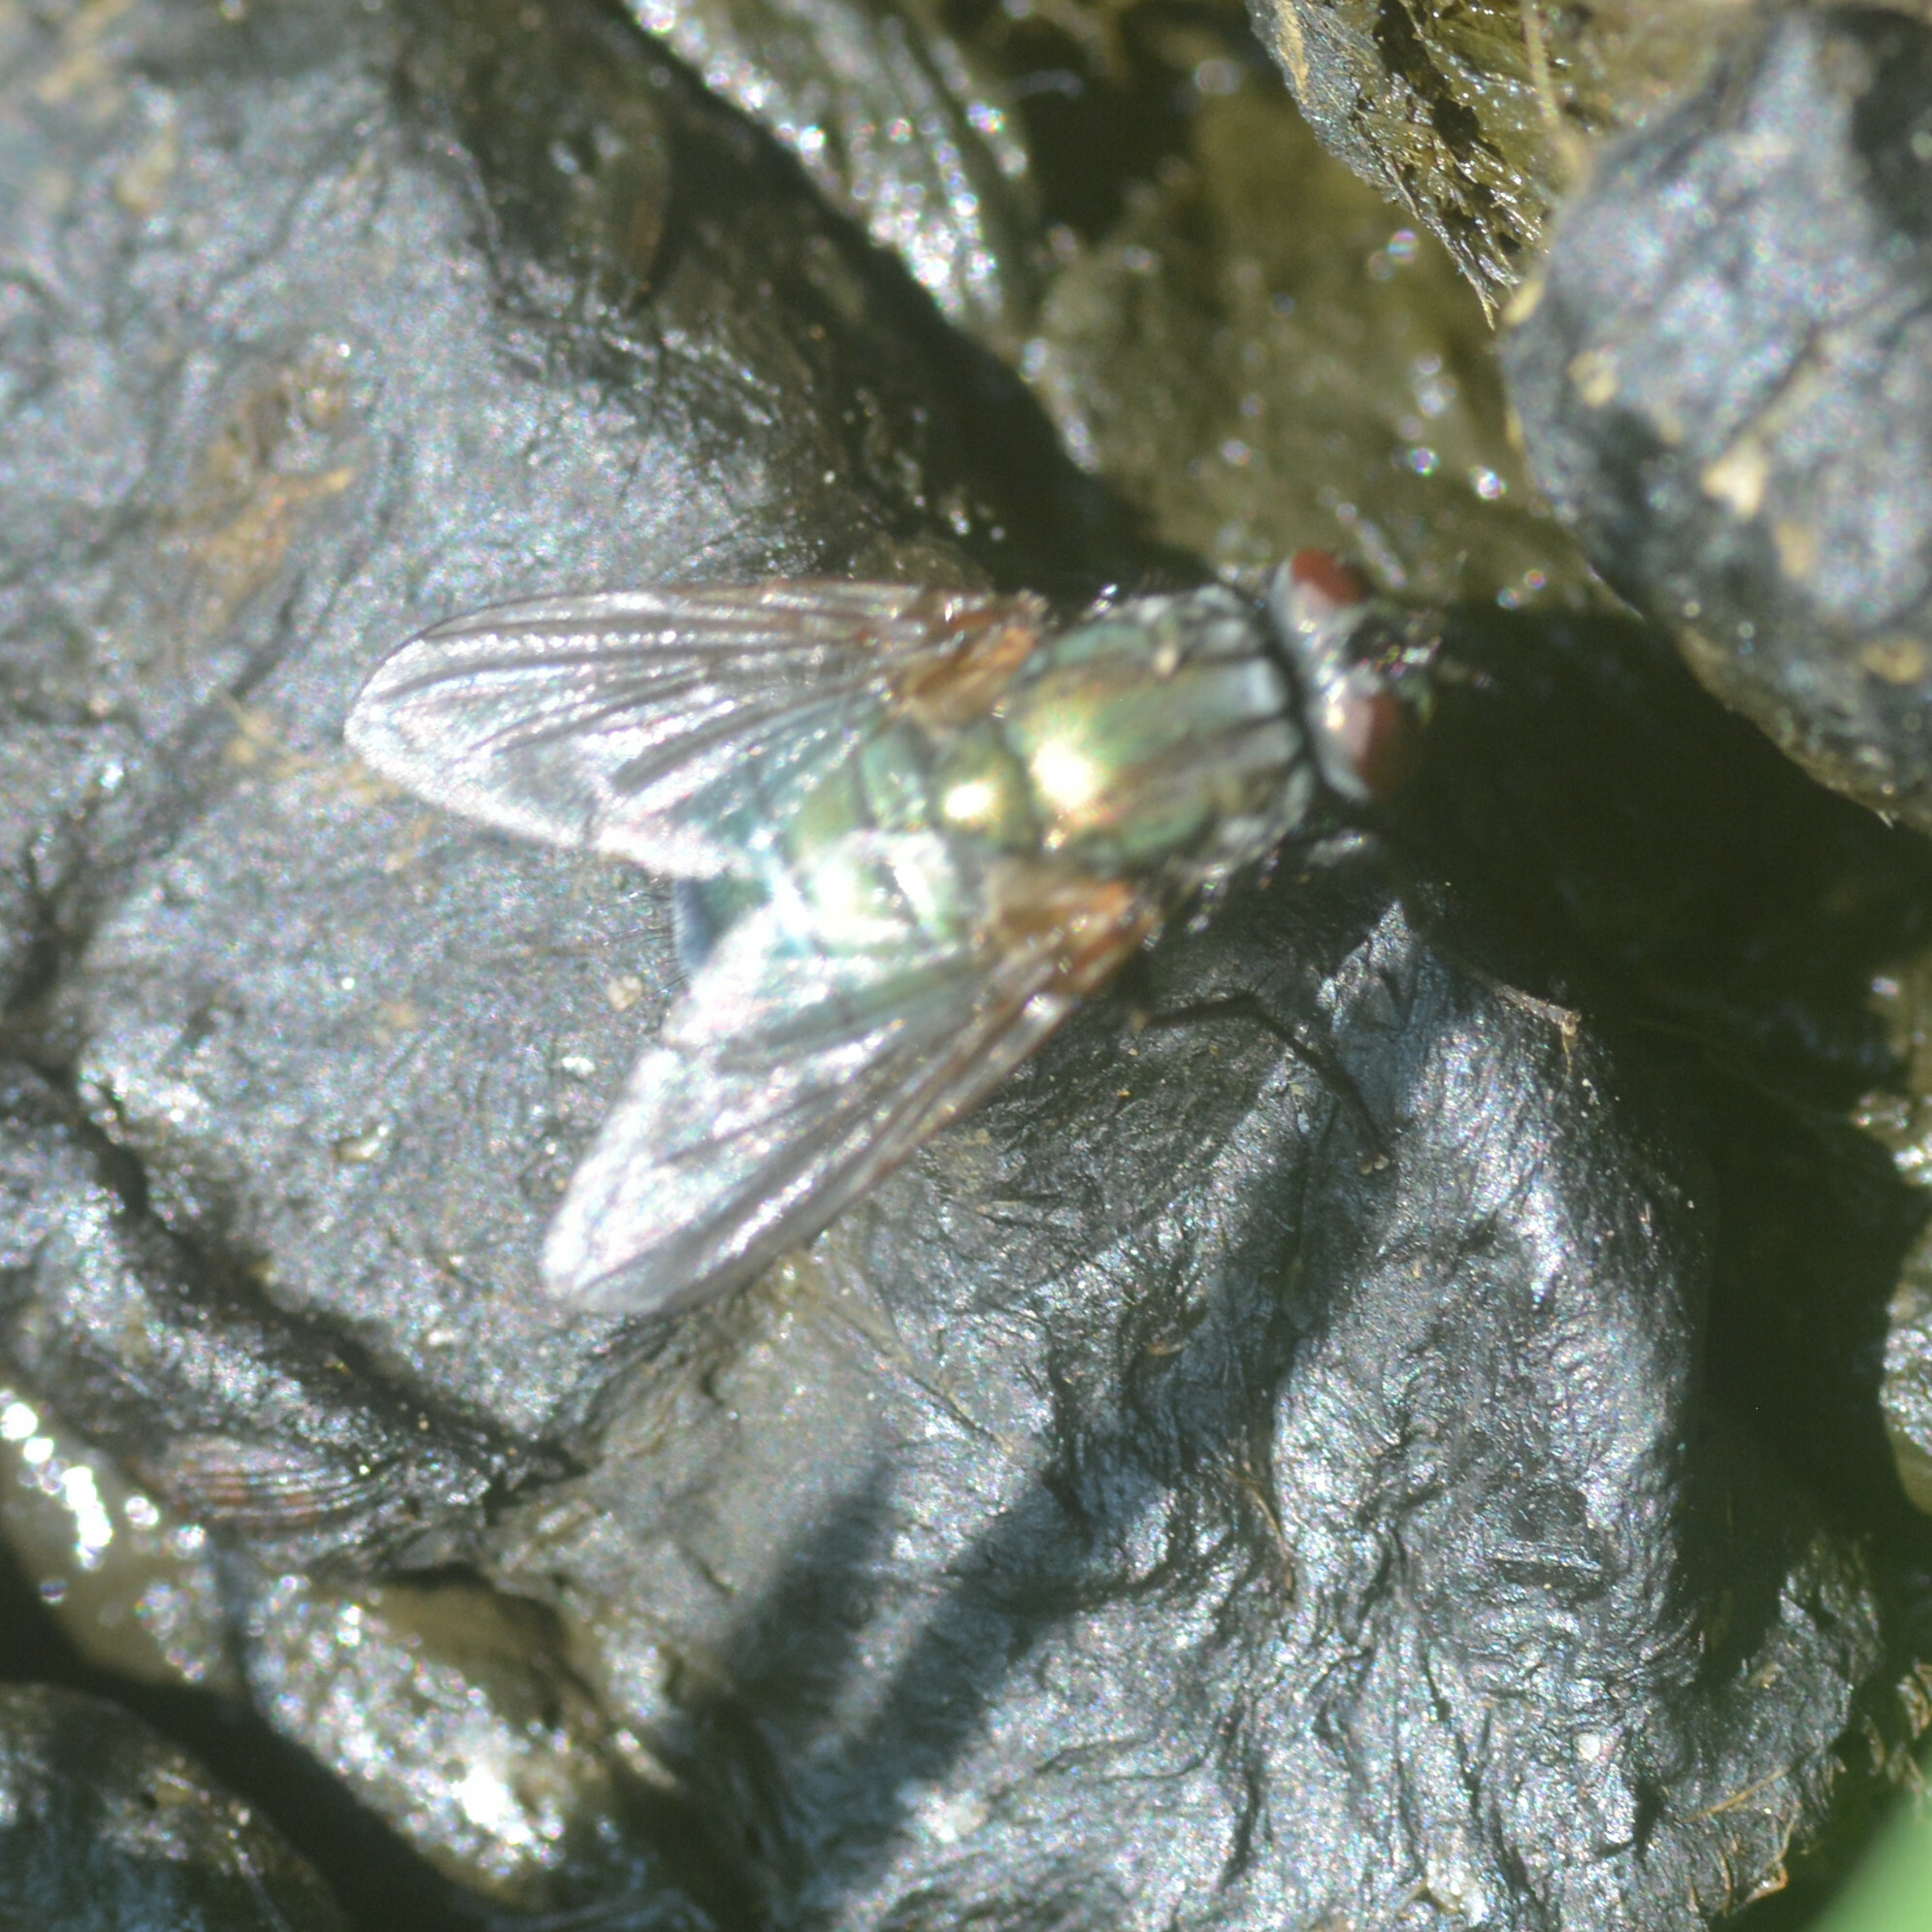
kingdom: Animalia
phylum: Arthropoda
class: Insecta
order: Diptera
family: Muscidae
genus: Dasyphora
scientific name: Dasyphora cyanella
